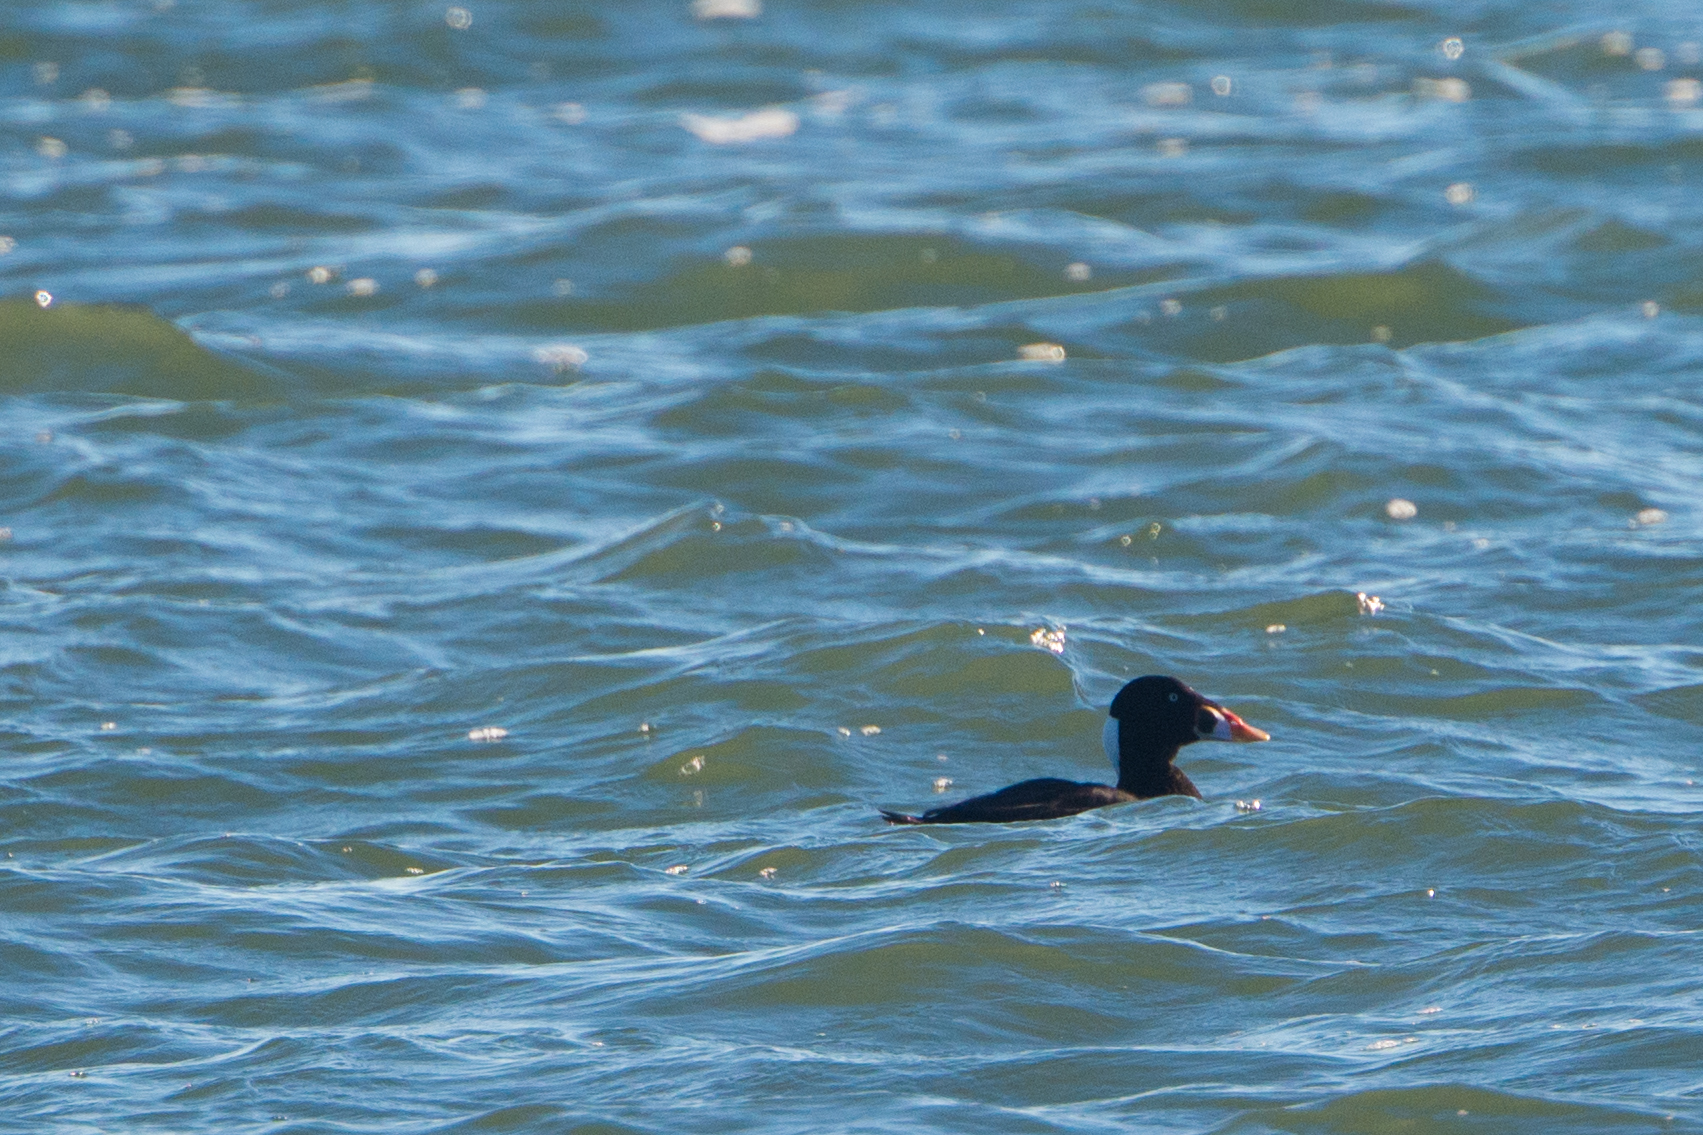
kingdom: Animalia
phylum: Chordata
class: Aves
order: Anseriformes
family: Anatidae
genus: Melanitta
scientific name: Melanitta perspicillata
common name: Surf scoter
